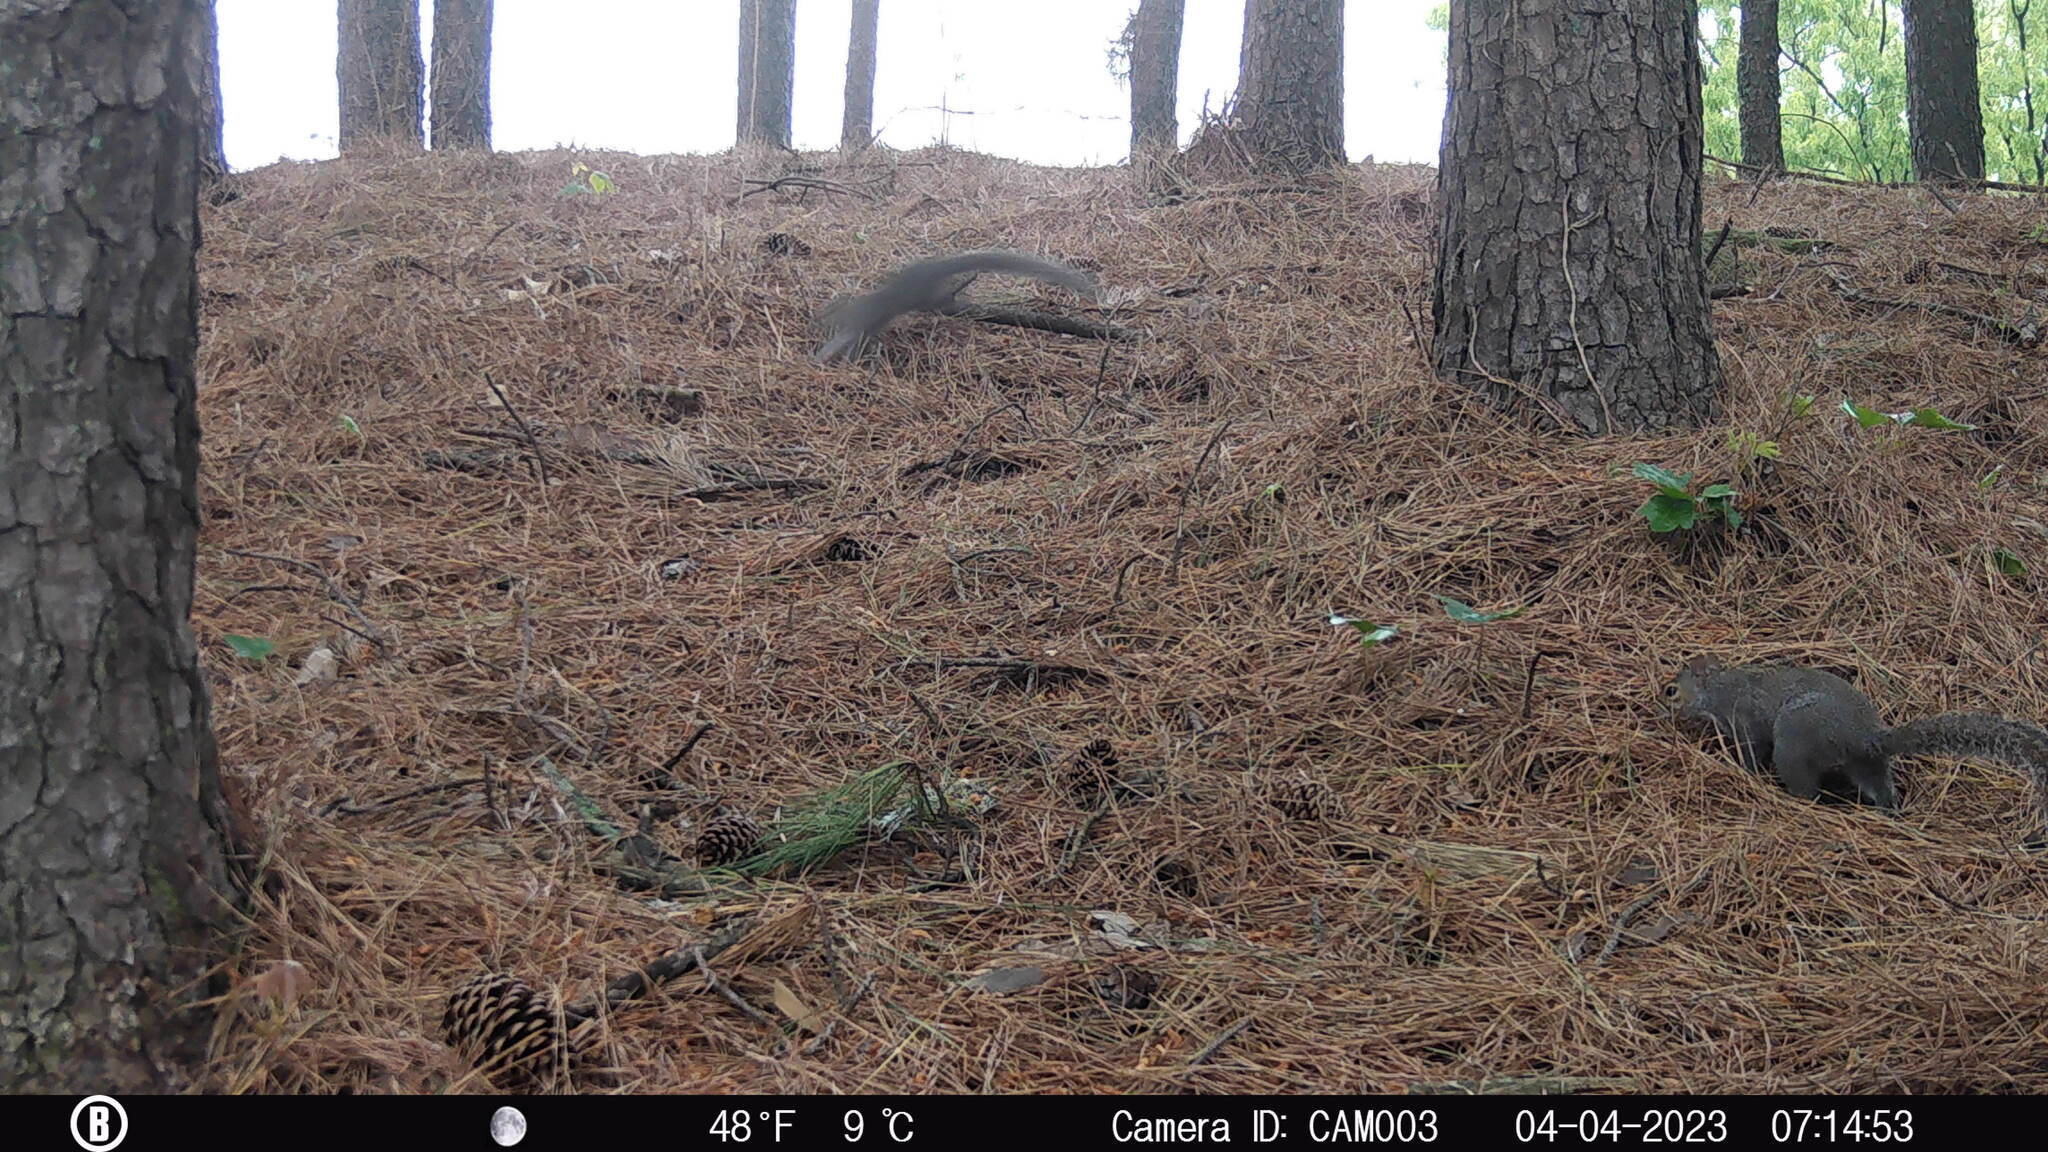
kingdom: Animalia
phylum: Chordata
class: Mammalia
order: Rodentia
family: Sciuridae
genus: Sciurus
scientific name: Sciurus carolinensis
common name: Eastern gray squirrel
